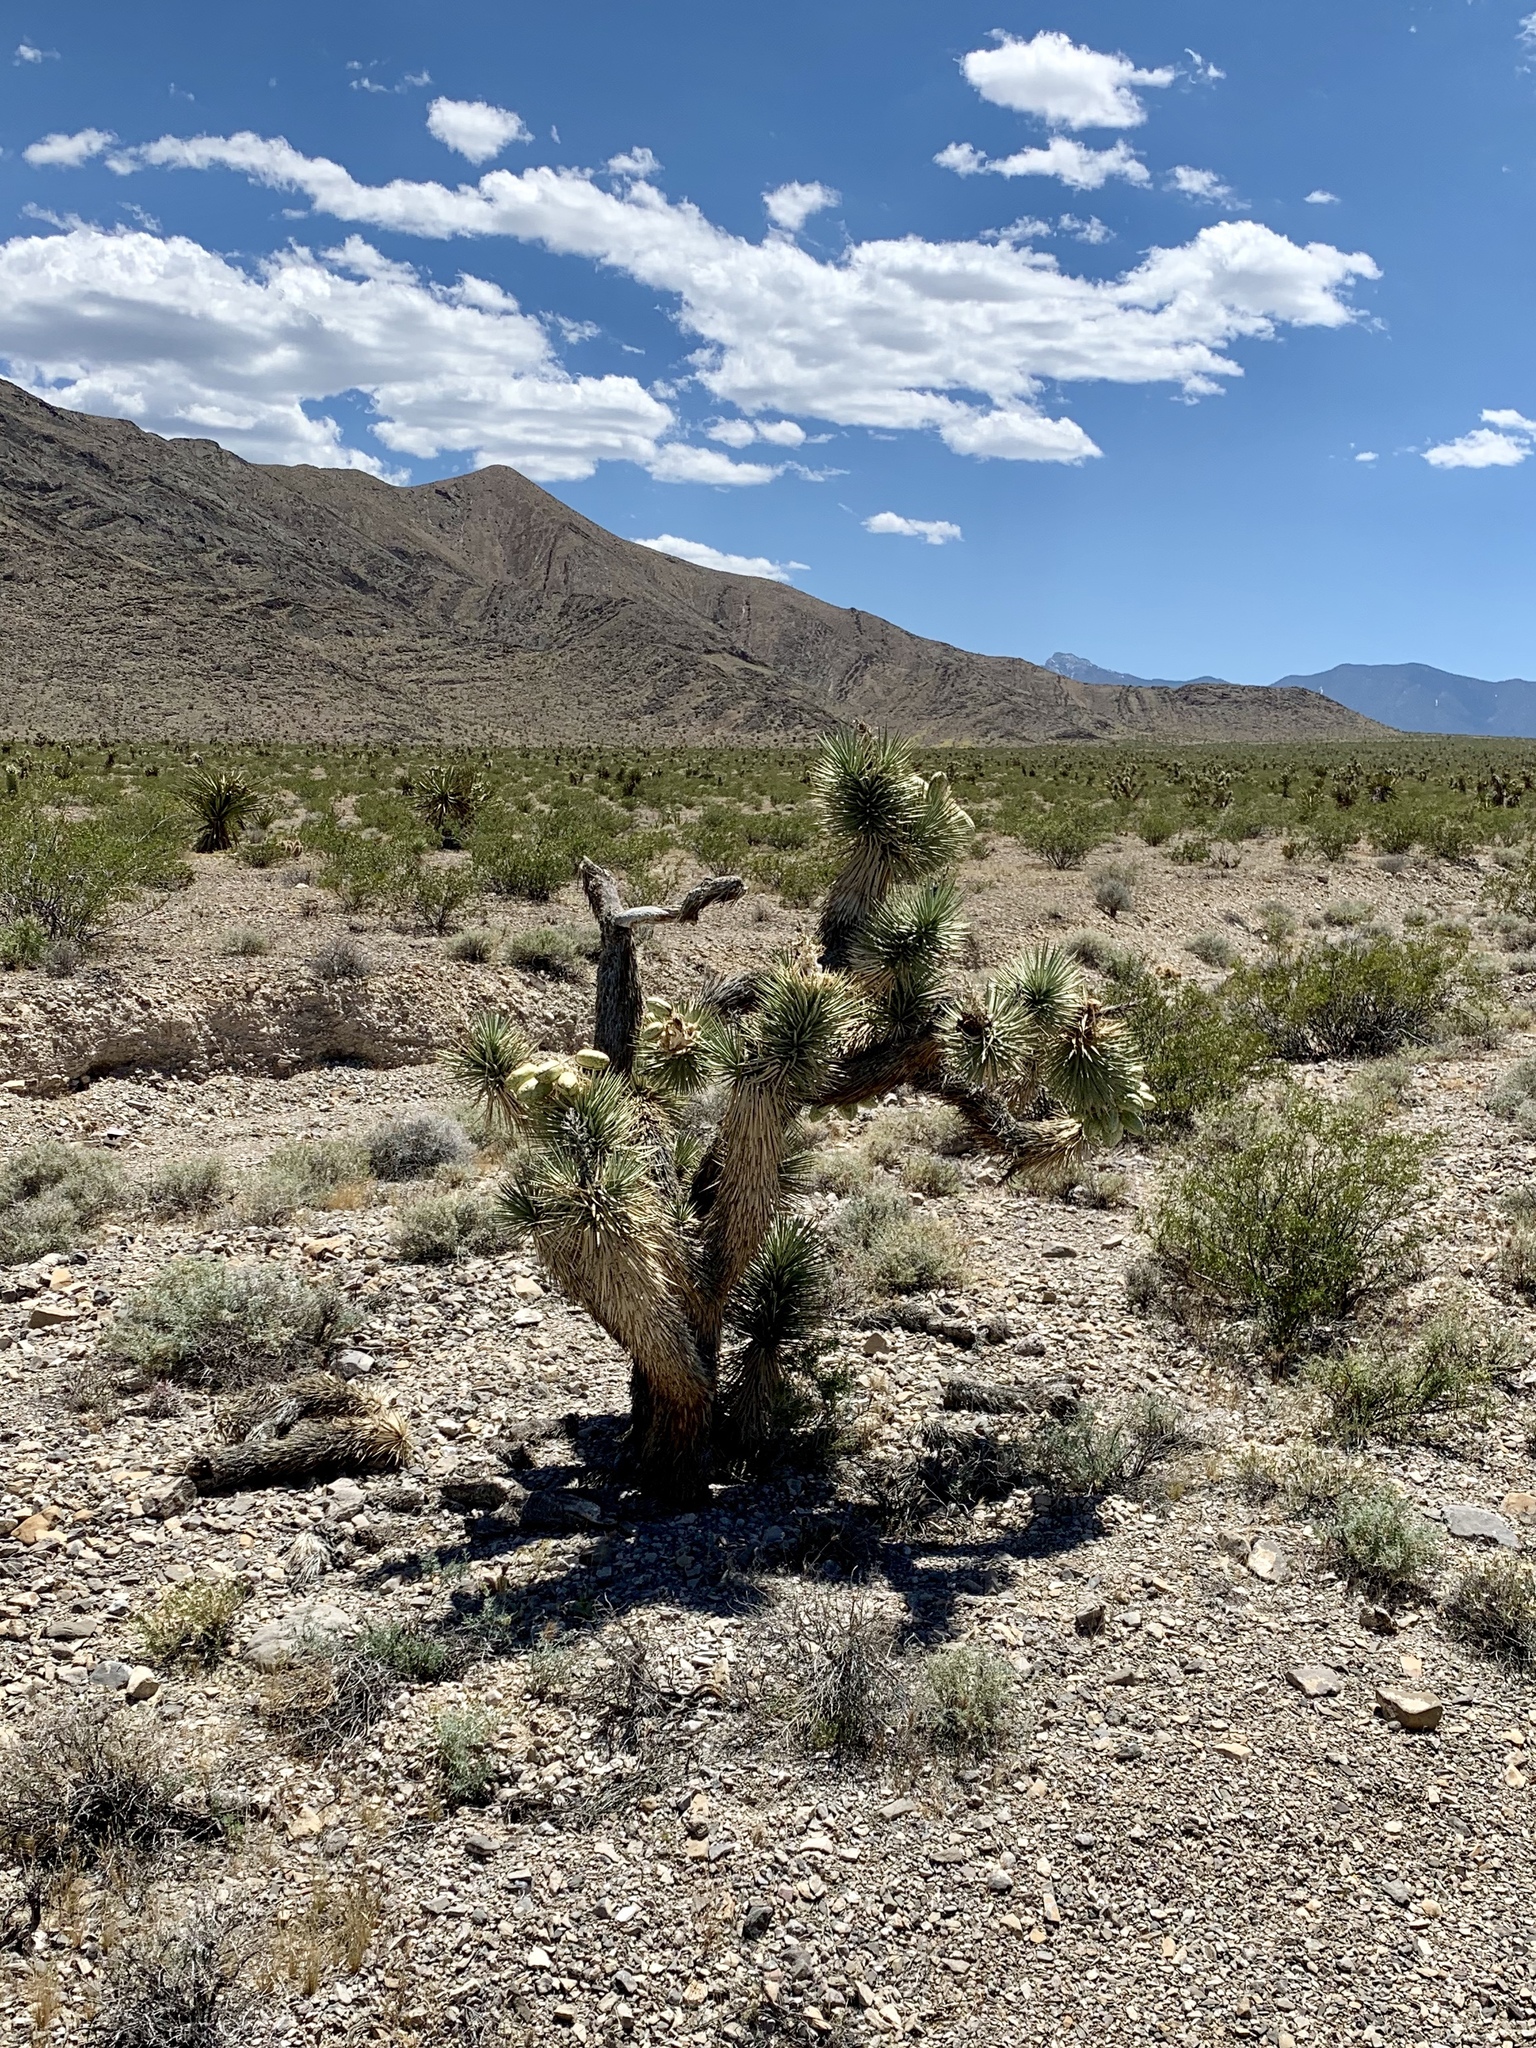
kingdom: Plantae
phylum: Tracheophyta
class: Liliopsida
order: Asparagales
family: Asparagaceae
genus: Yucca
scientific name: Yucca brevifolia
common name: Joshua tree
